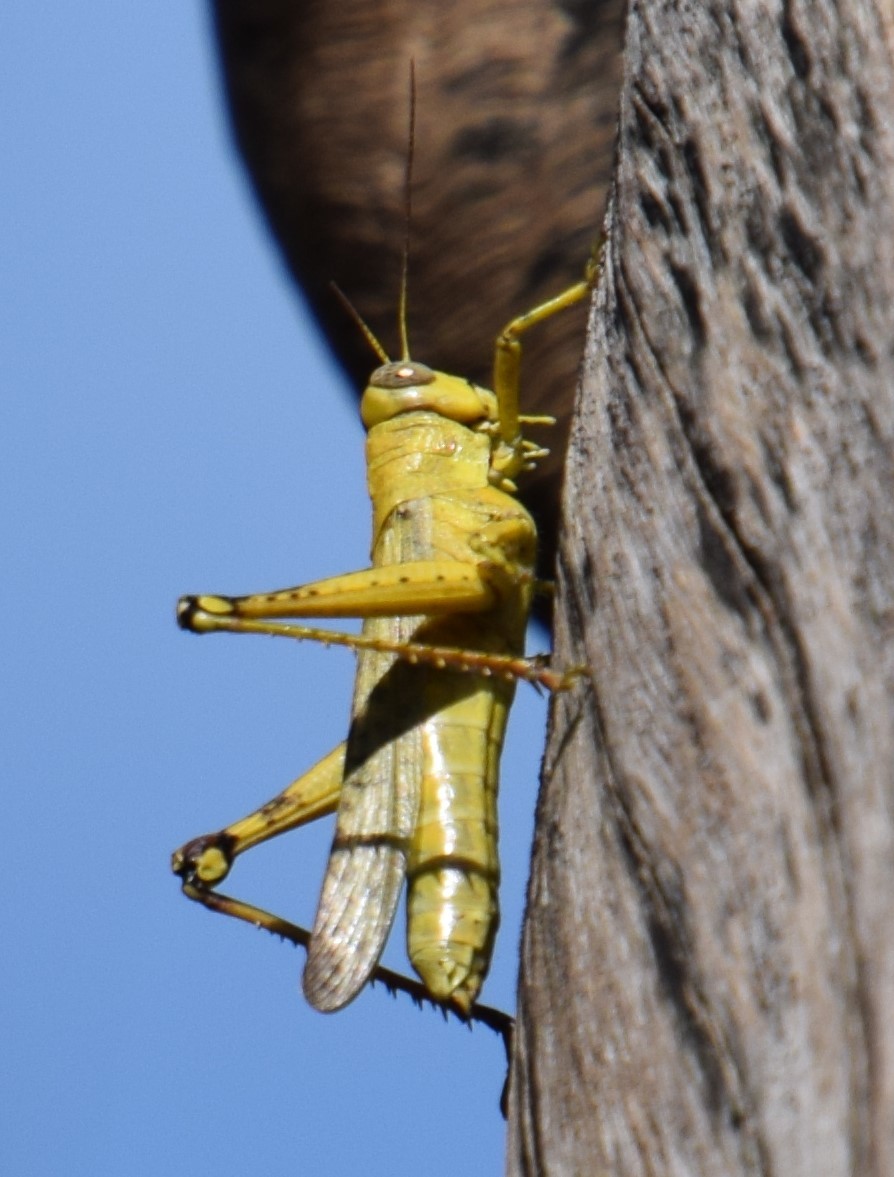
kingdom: Animalia
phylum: Arthropoda
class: Insecta
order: Orthoptera
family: Acrididae
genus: Valanga
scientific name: Valanga meleager
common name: Coastal valanga
